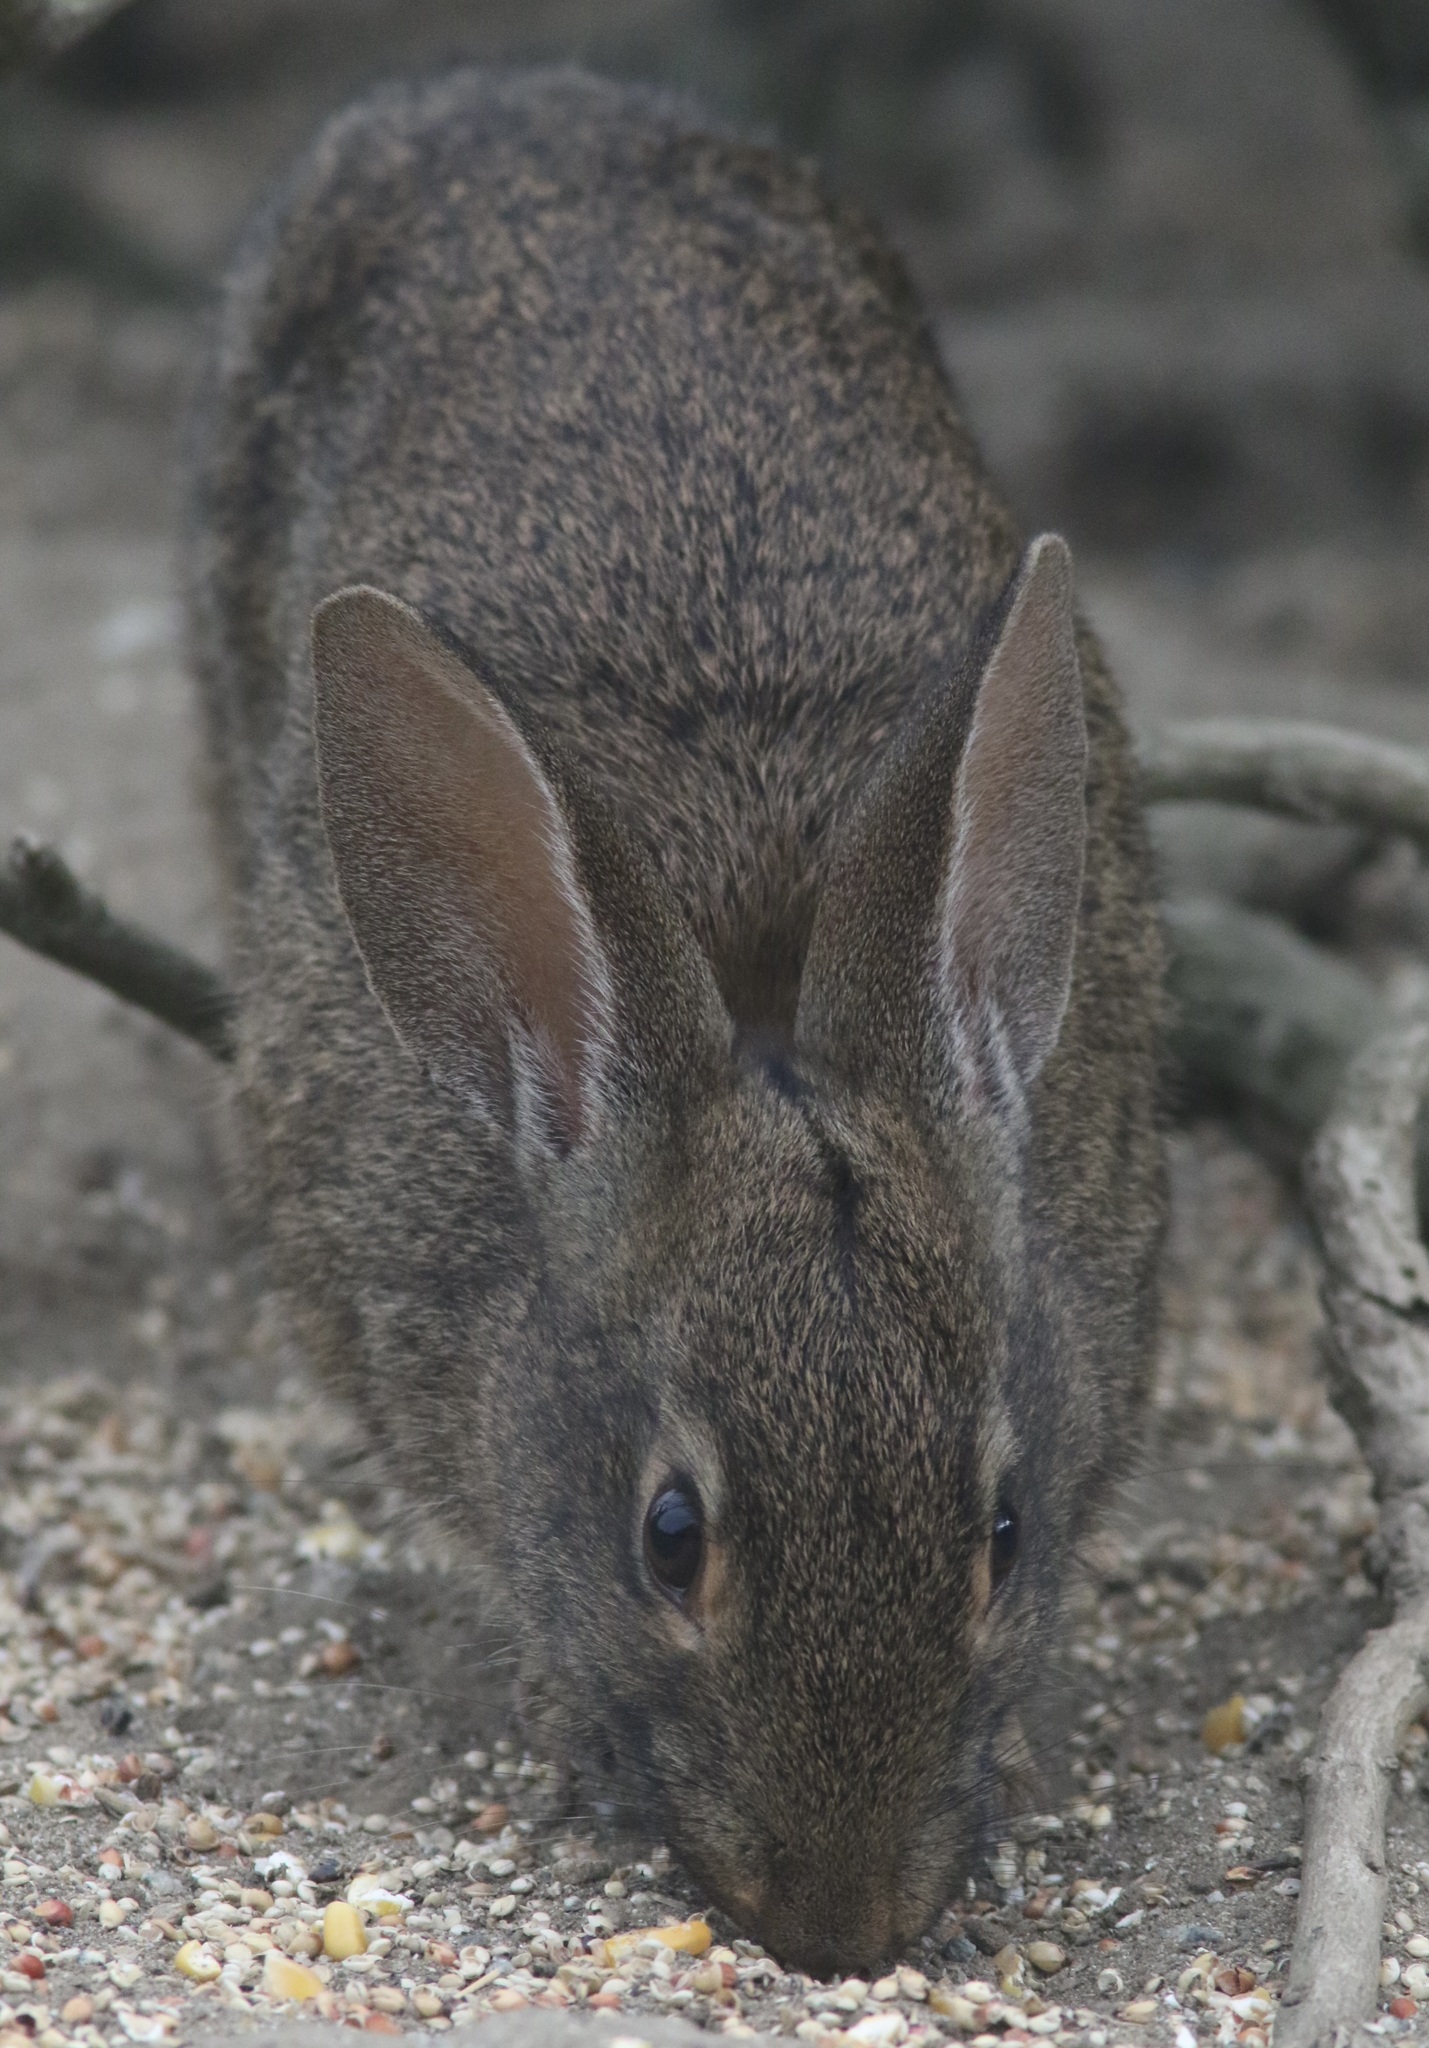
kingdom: Animalia
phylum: Chordata
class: Mammalia
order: Lagomorpha
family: Leporidae
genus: Sylvilagus
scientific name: Sylvilagus bachmani
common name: Brush rabbit
